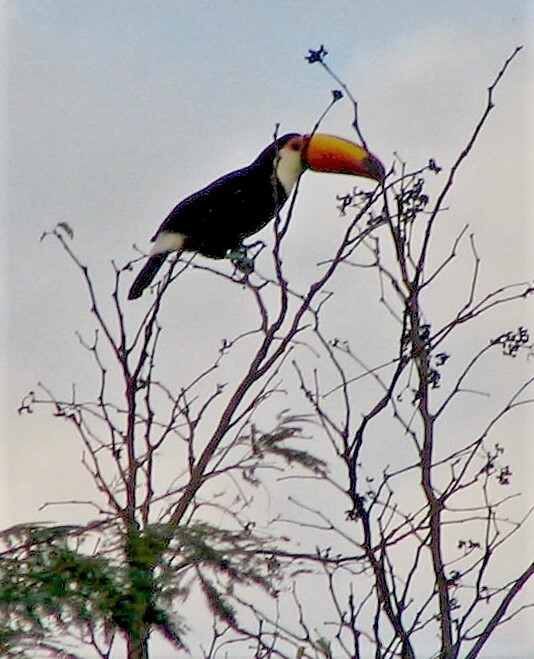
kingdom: Animalia
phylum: Chordata
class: Aves
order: Piciformes
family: Ramphastidae
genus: Ramphastos
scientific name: Ramphastos toco
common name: Toco toucan
